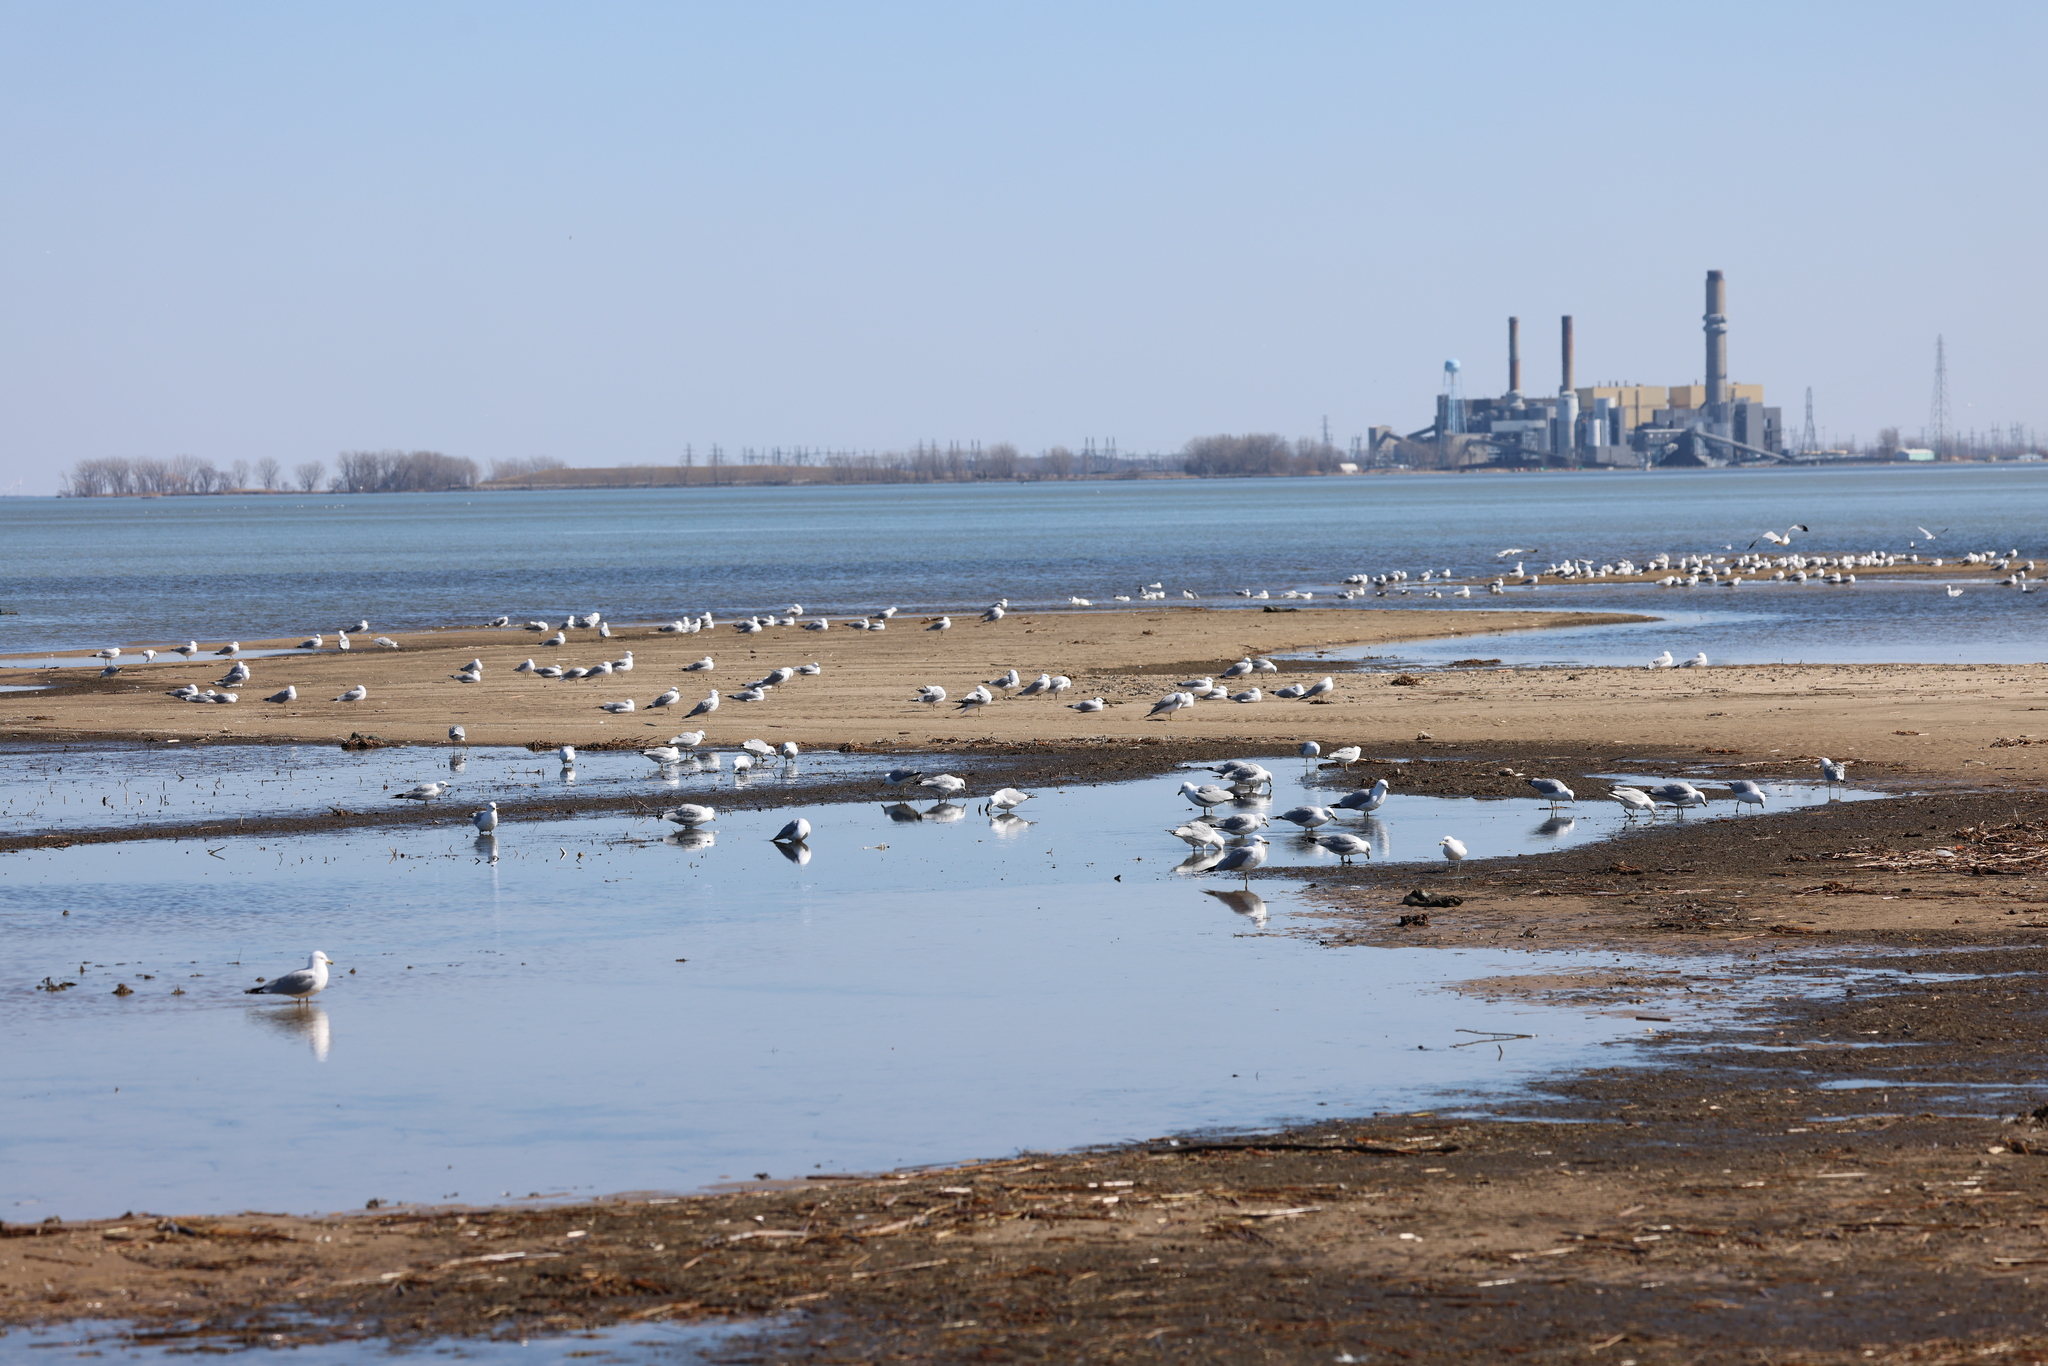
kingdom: Animalia
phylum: Chordata
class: Aves
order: Charadriiformes
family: Laridae
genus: Larus
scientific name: Larus delawarensis
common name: Ring-billed gull
